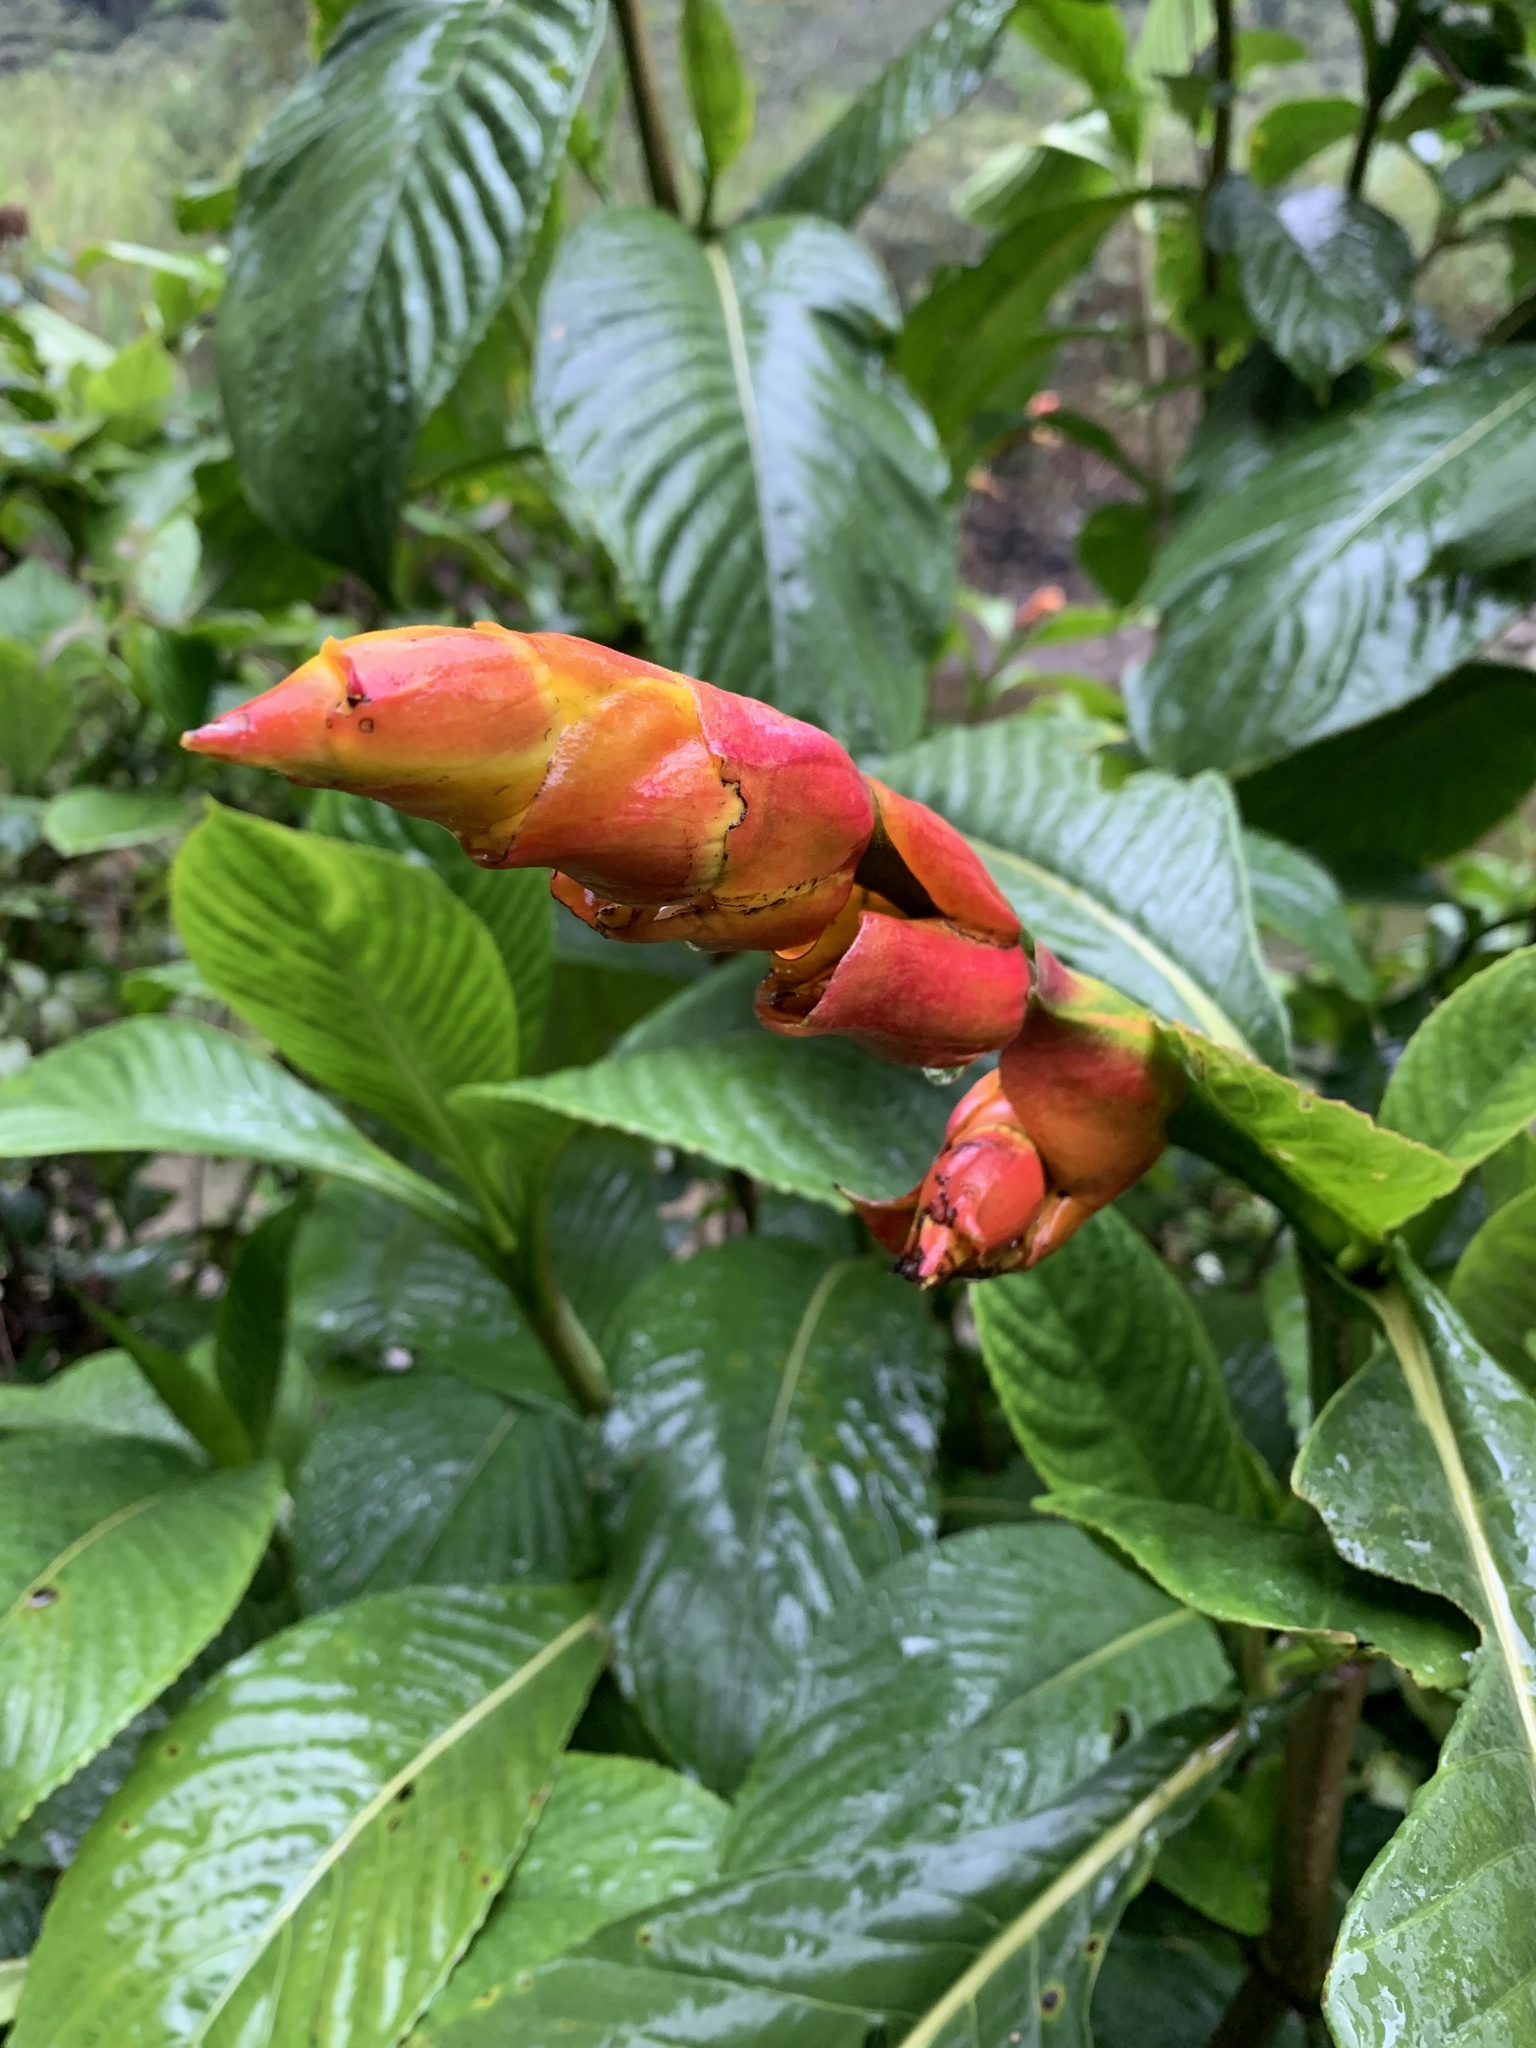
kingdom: Plantae
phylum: Tracheophyta
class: Magnoliopsida
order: Lamiales
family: Acanthaceae
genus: Sanchezia
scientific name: Sanchezia oblonga
